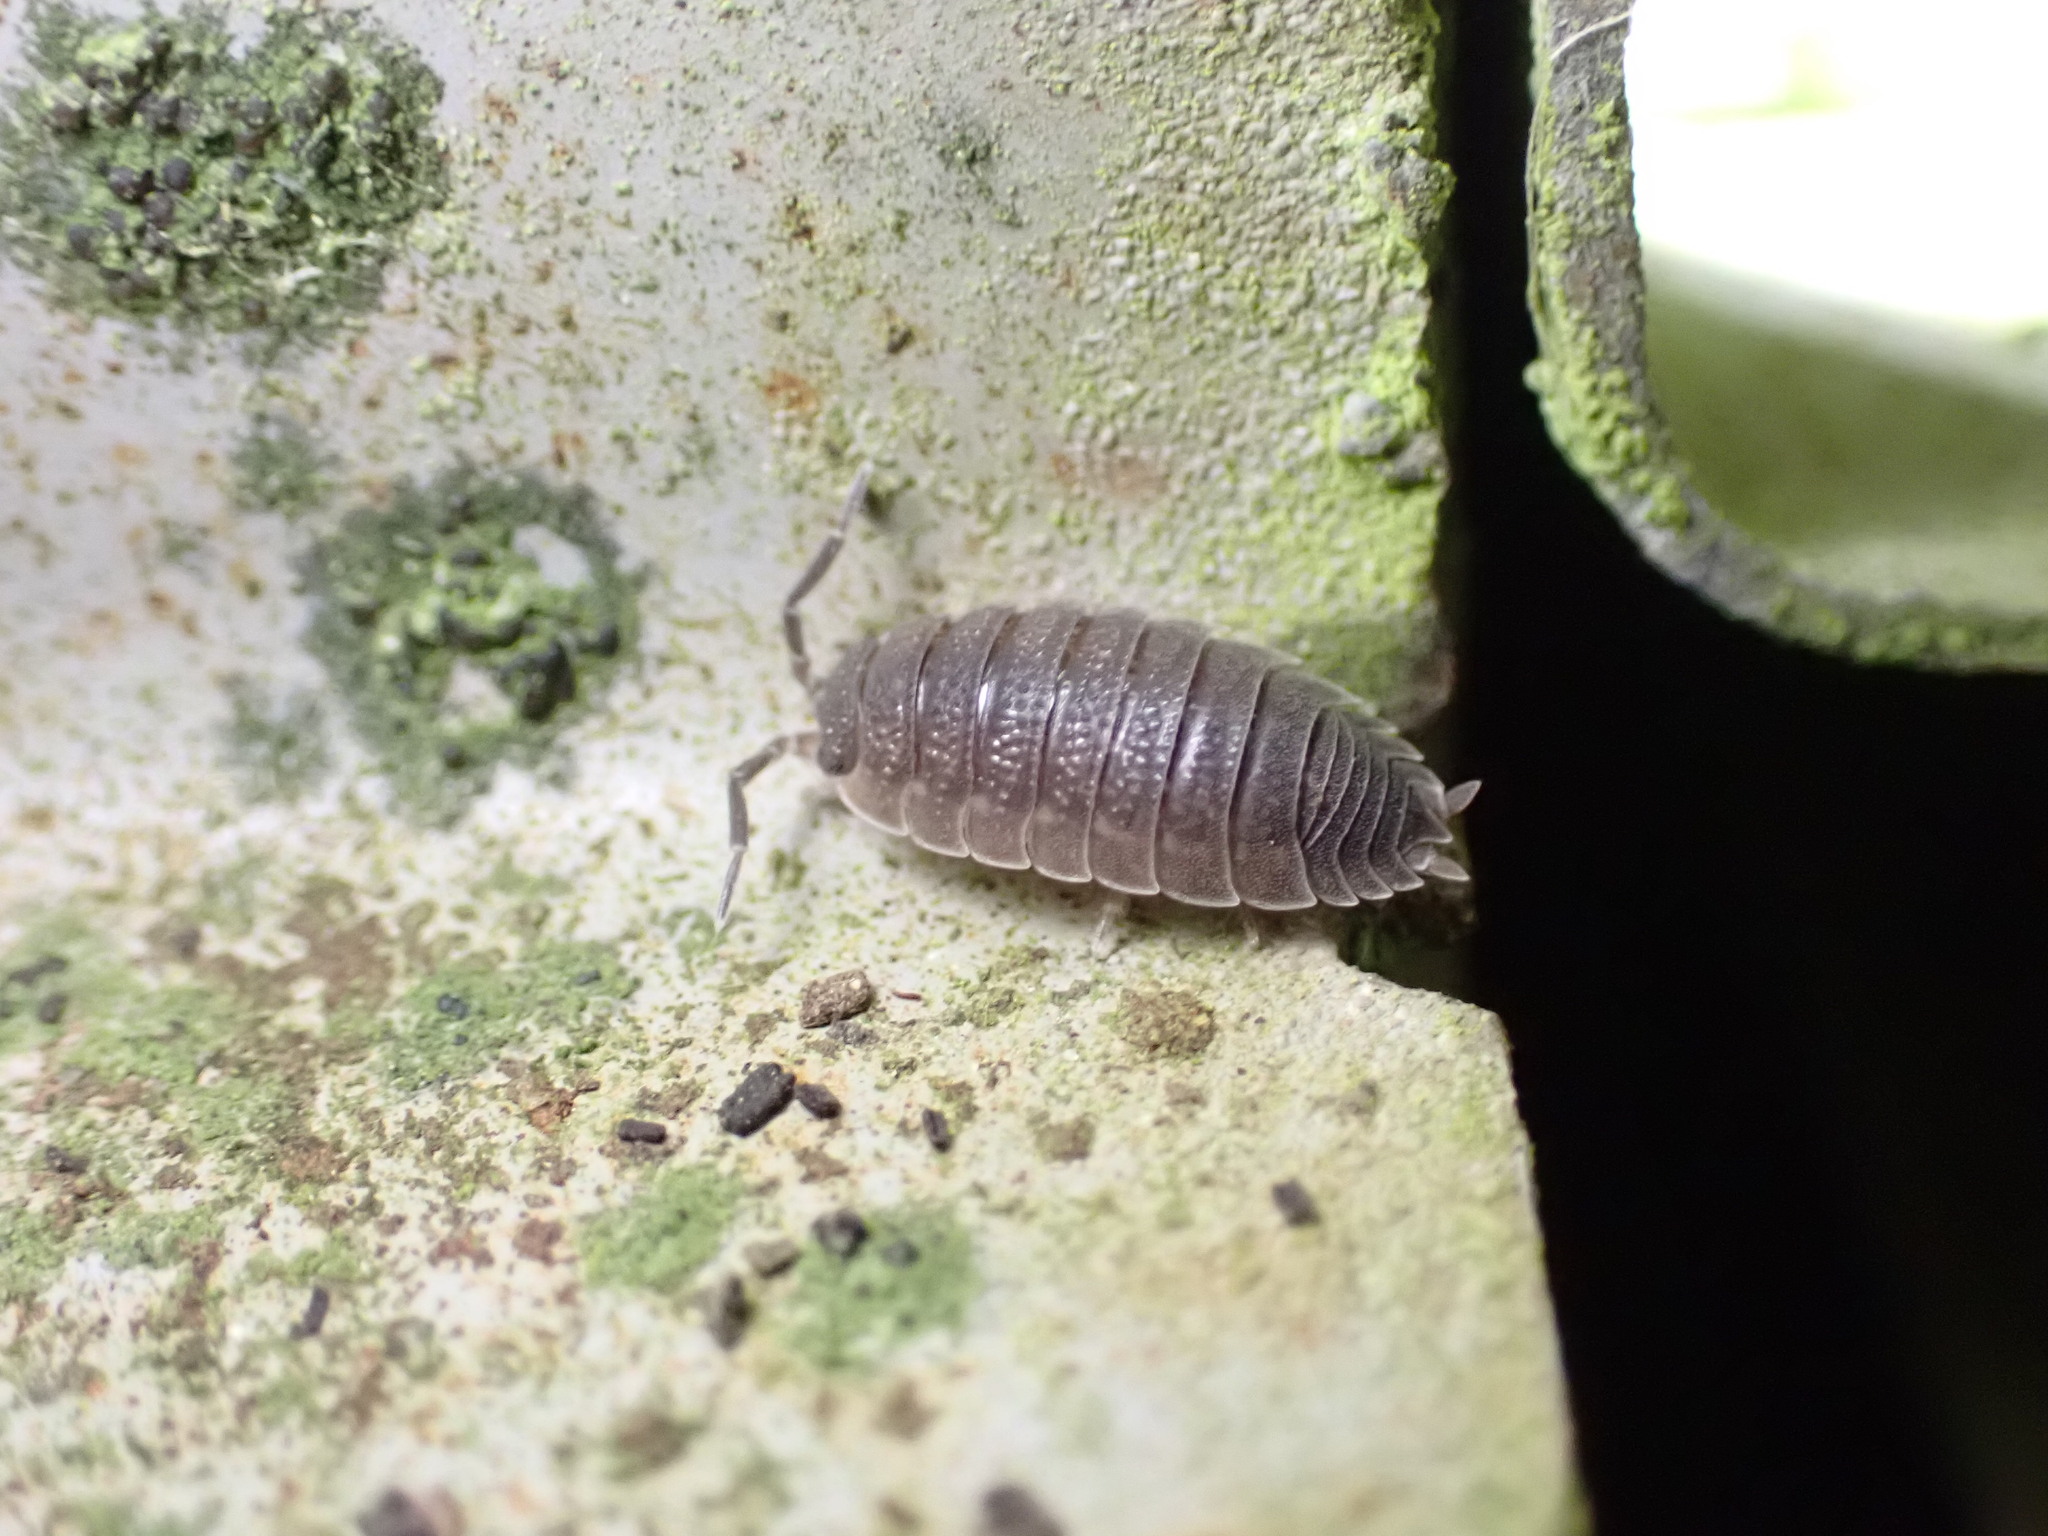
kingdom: Animalia
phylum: Arthropoda
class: Malacostraca
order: Isopoda
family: Porcellionidae
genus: Porcellio
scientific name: Porcellio scaber
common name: Common rough woodlouse
